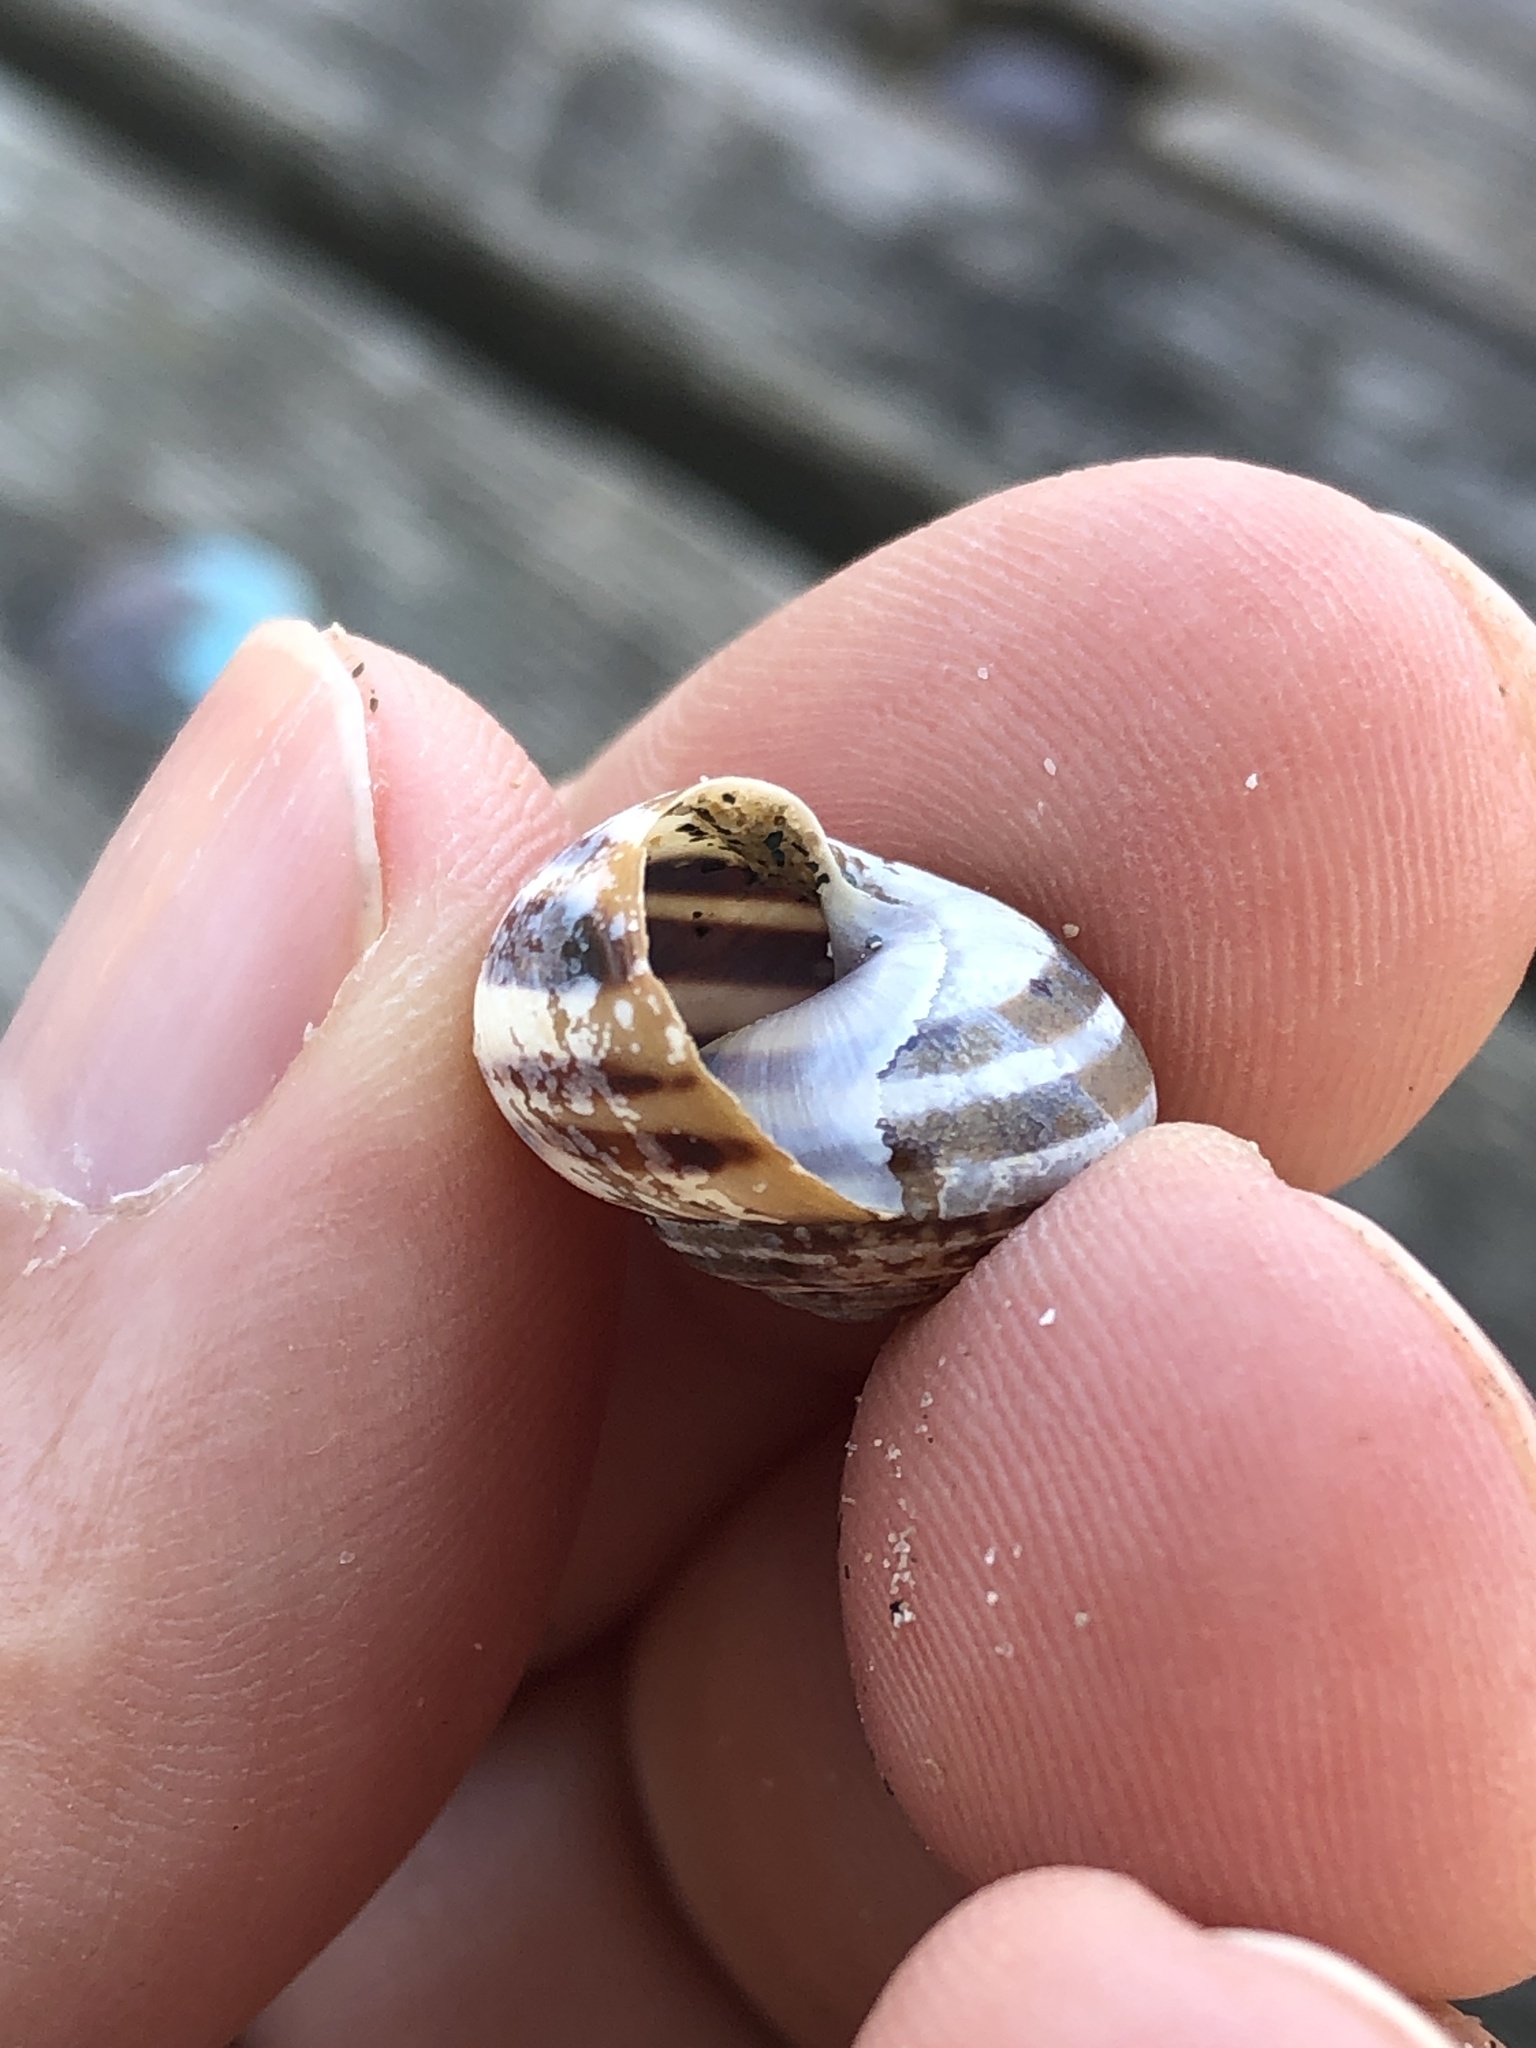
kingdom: Animalia
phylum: Mollusca
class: Gastropoda
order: Stylommatophora
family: Helicidae
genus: Cepaea
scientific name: Cepaea nemoralis
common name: Grovesnail
